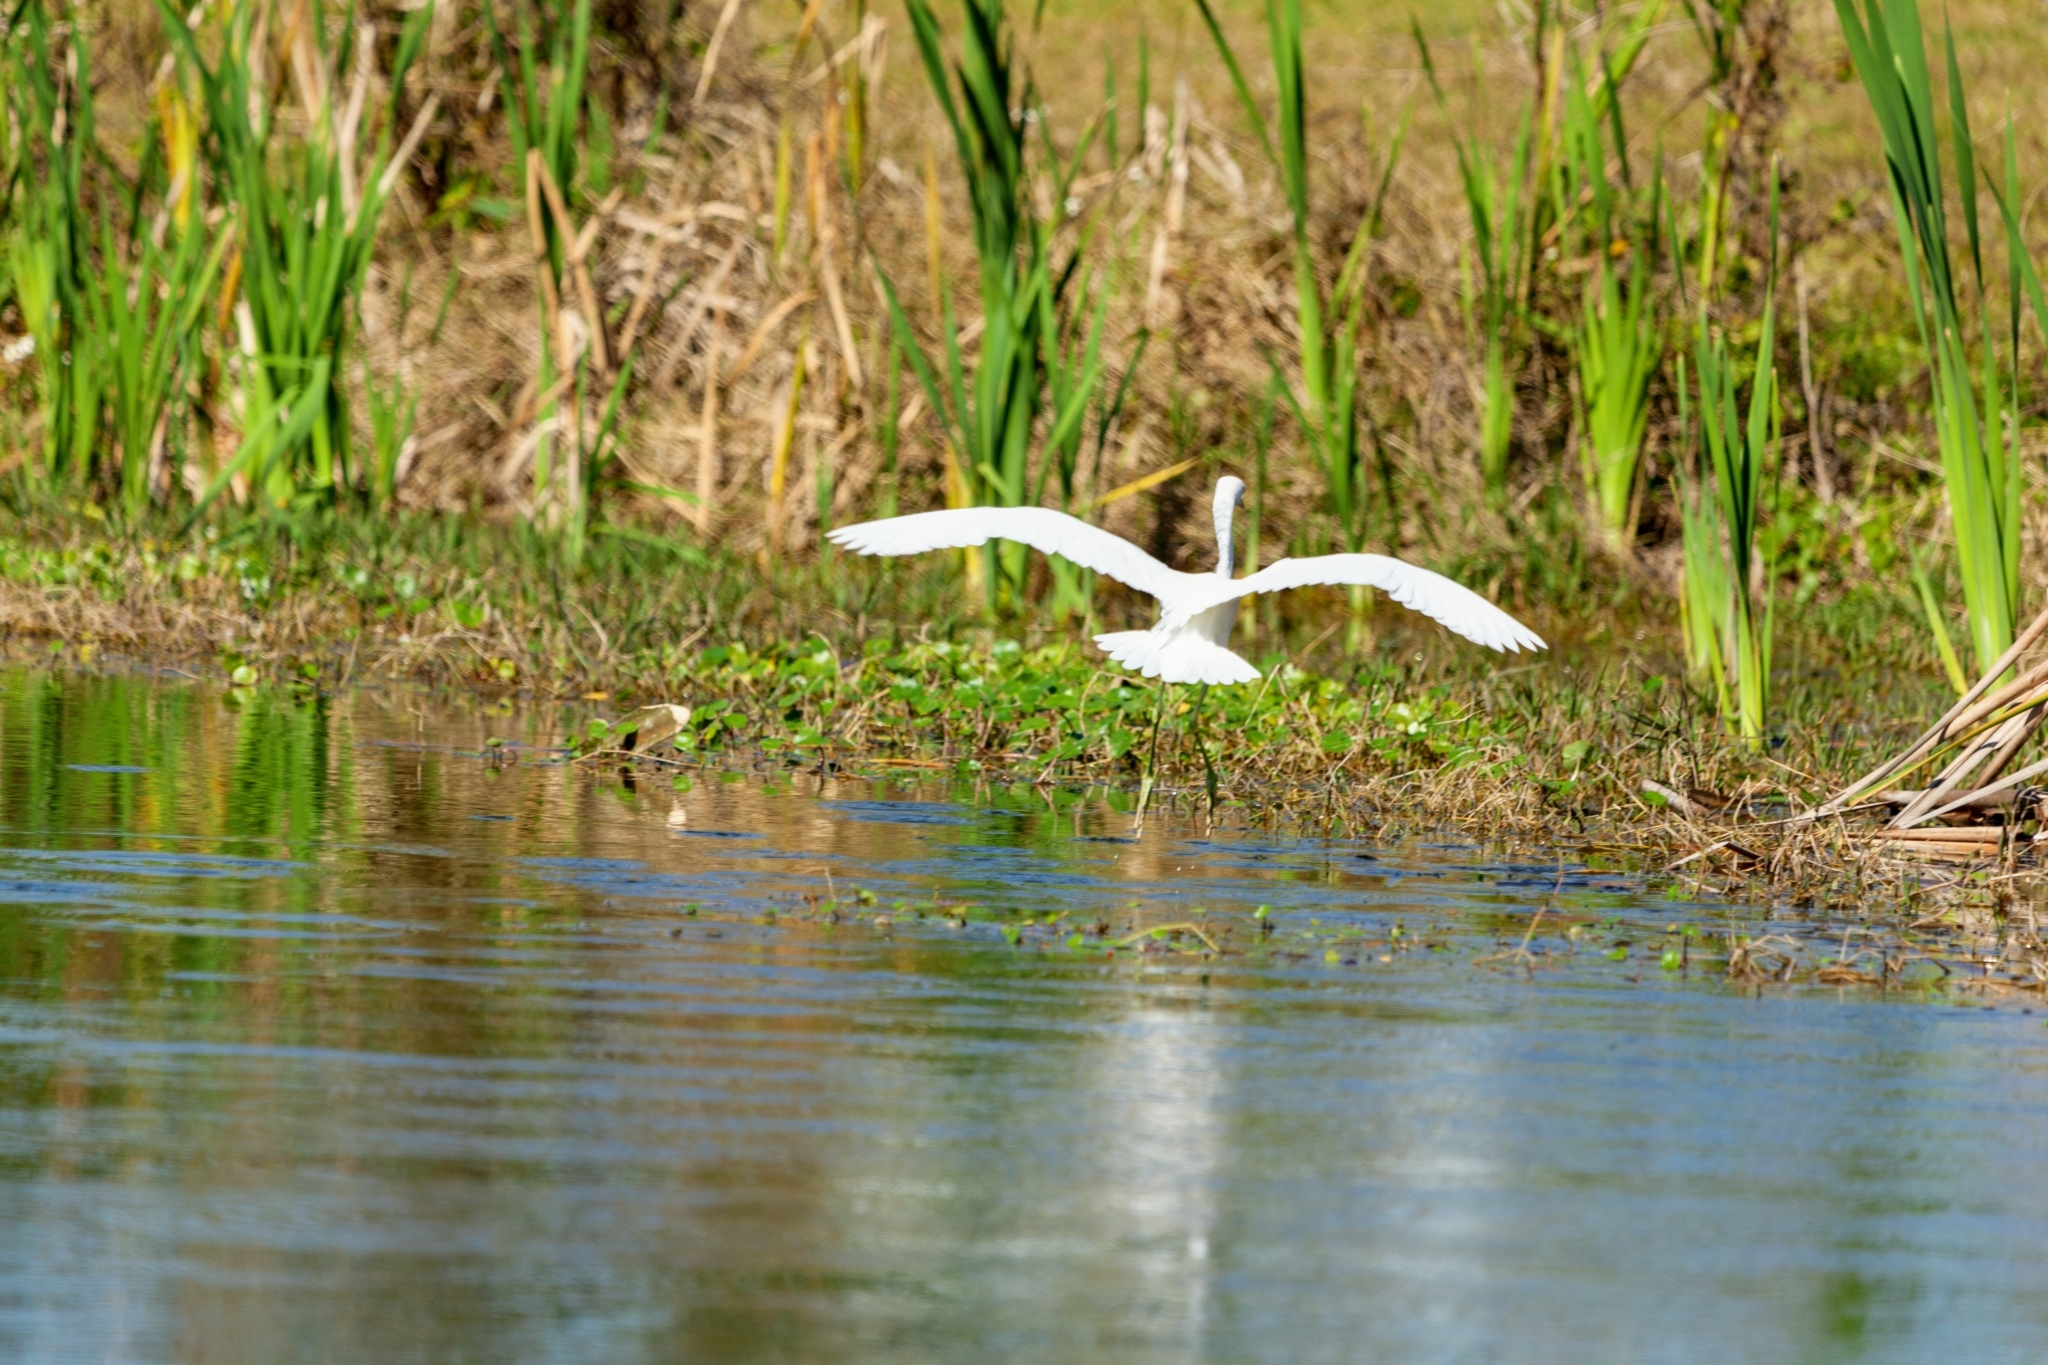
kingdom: Animalia
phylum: Chordata
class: Aves
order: Pelecaniformes
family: Ardeidae
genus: Egretta
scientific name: Egretta caerulea
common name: Little blue heron
